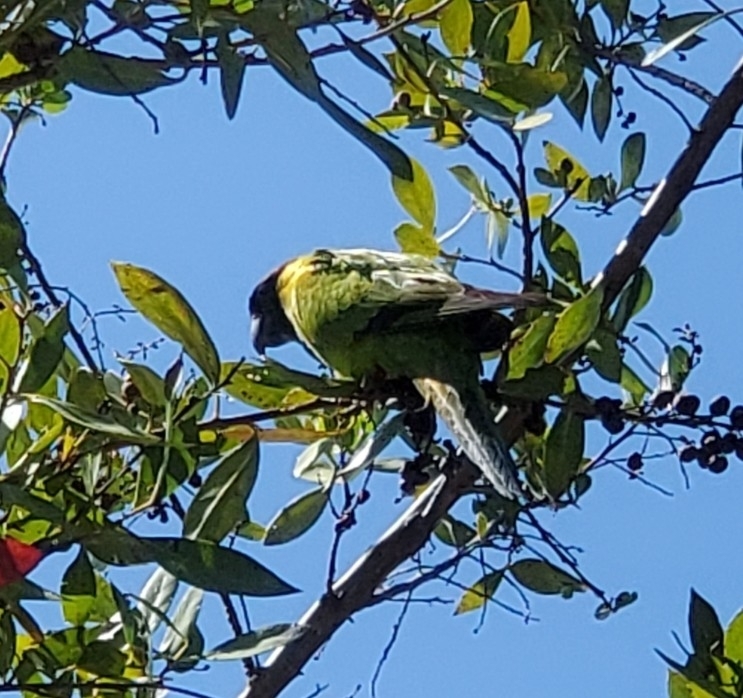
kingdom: Animalia
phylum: Chordata
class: Aves
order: Psittaciformes
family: Psittacidae
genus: Nandayus
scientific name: Nandayus nenday
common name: Nanday parakeet
